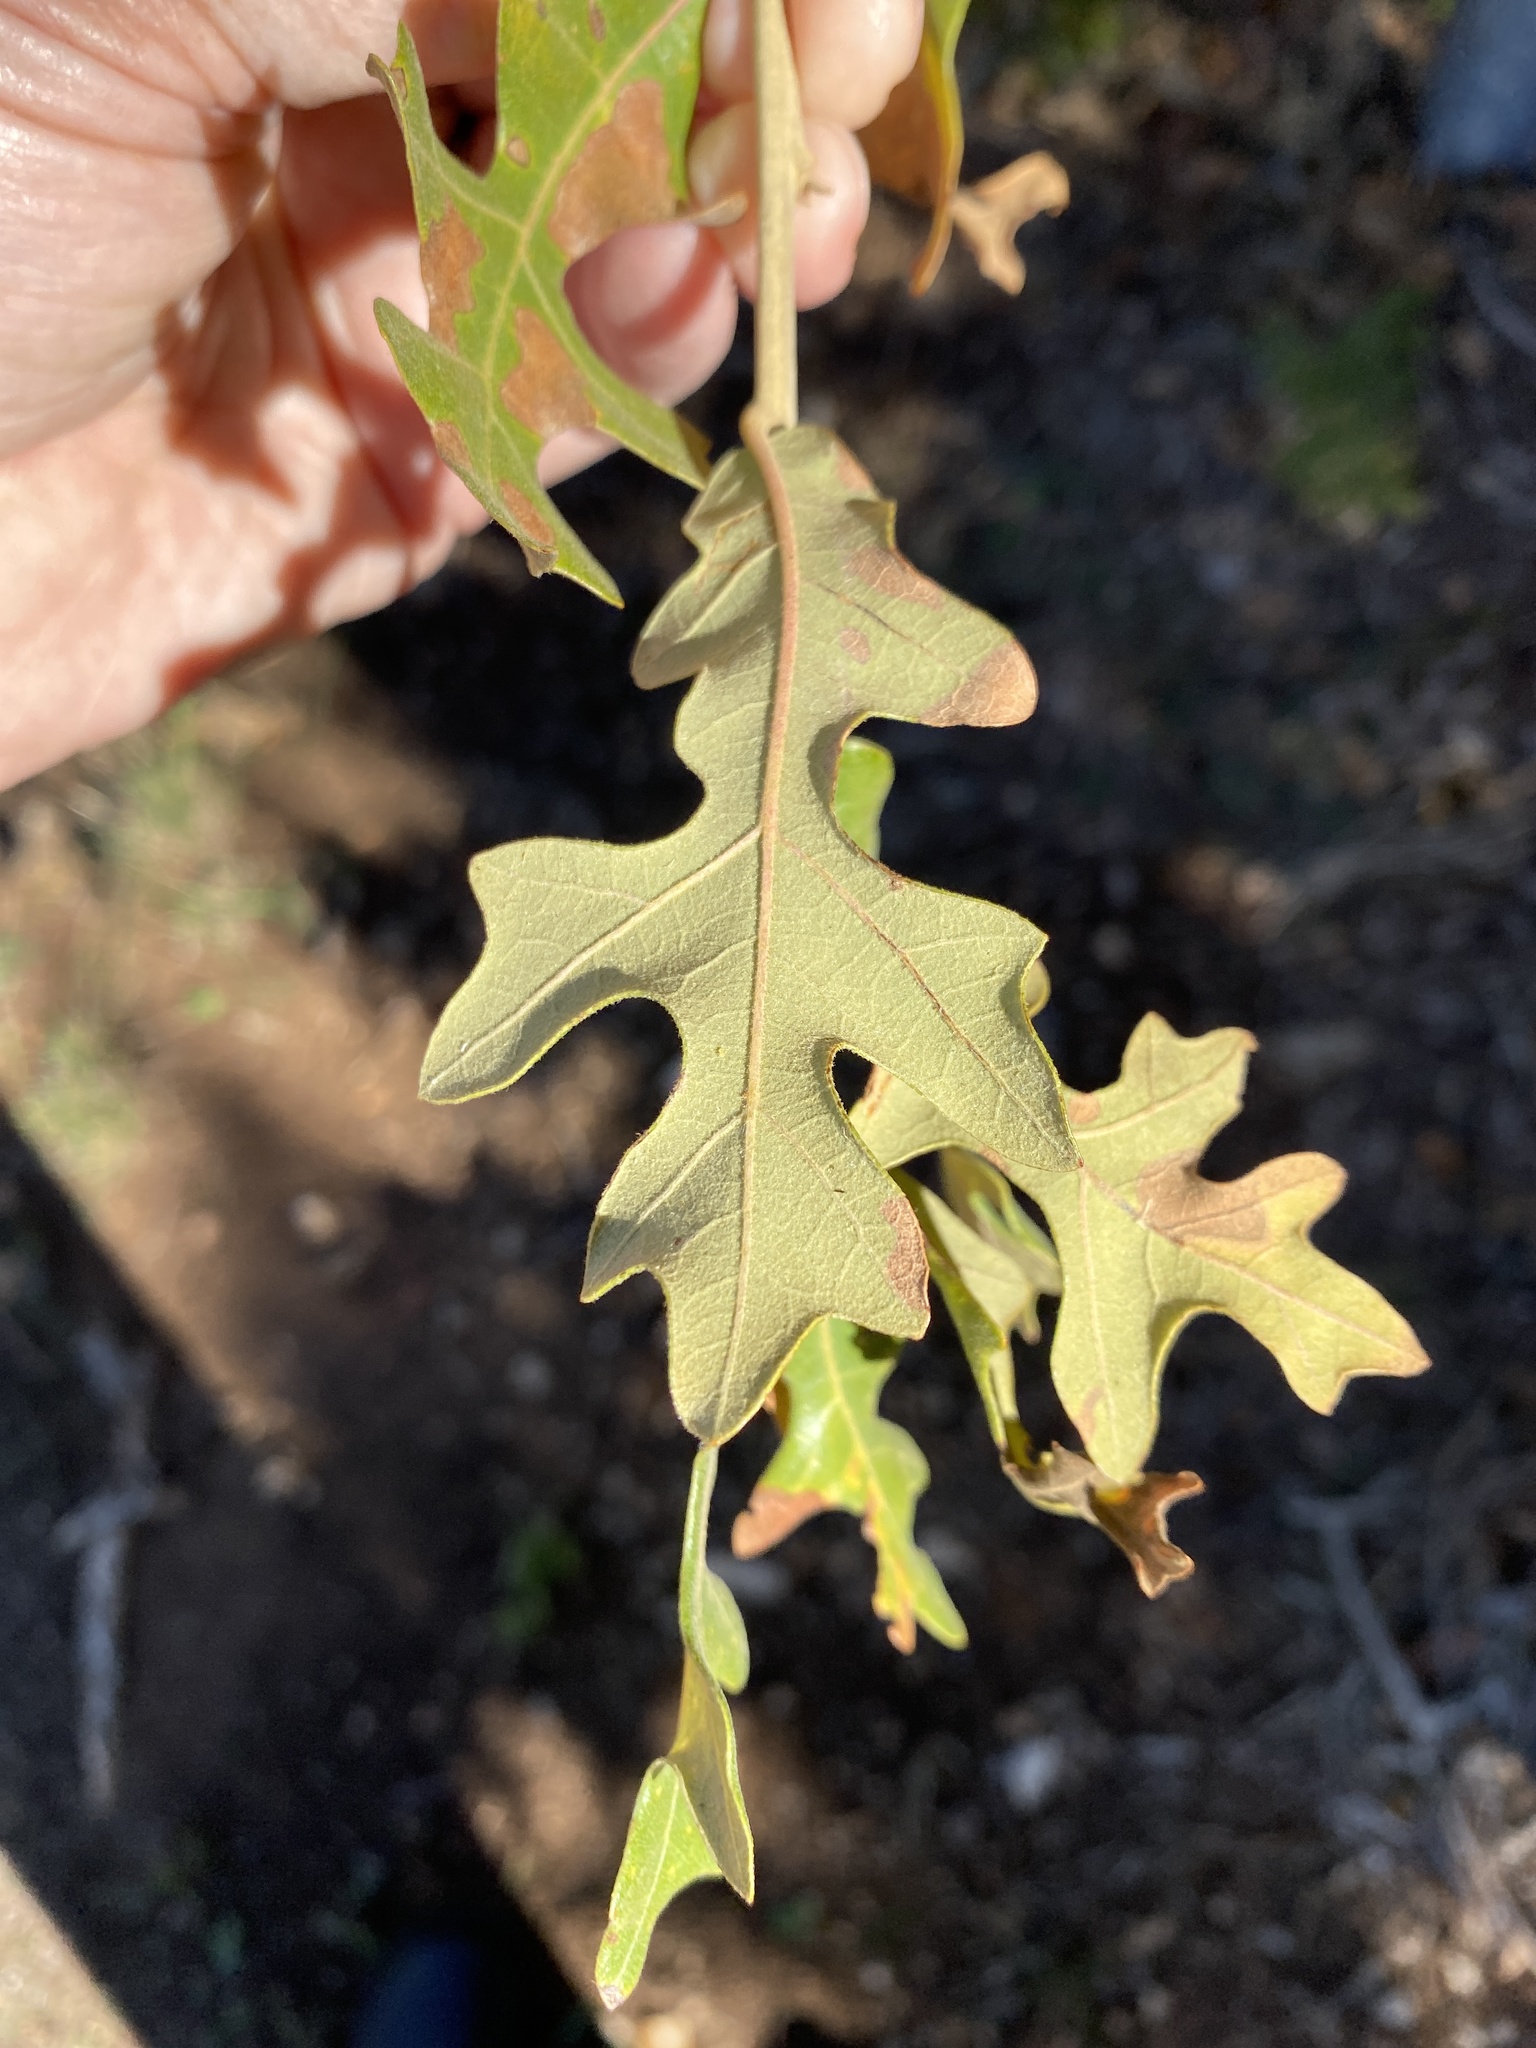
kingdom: Plantae
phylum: Tracheophyta
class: Magnoliopsida
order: Fagales
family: Fagaceae
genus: Quercus
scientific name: Quercus stellata
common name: Post oak
